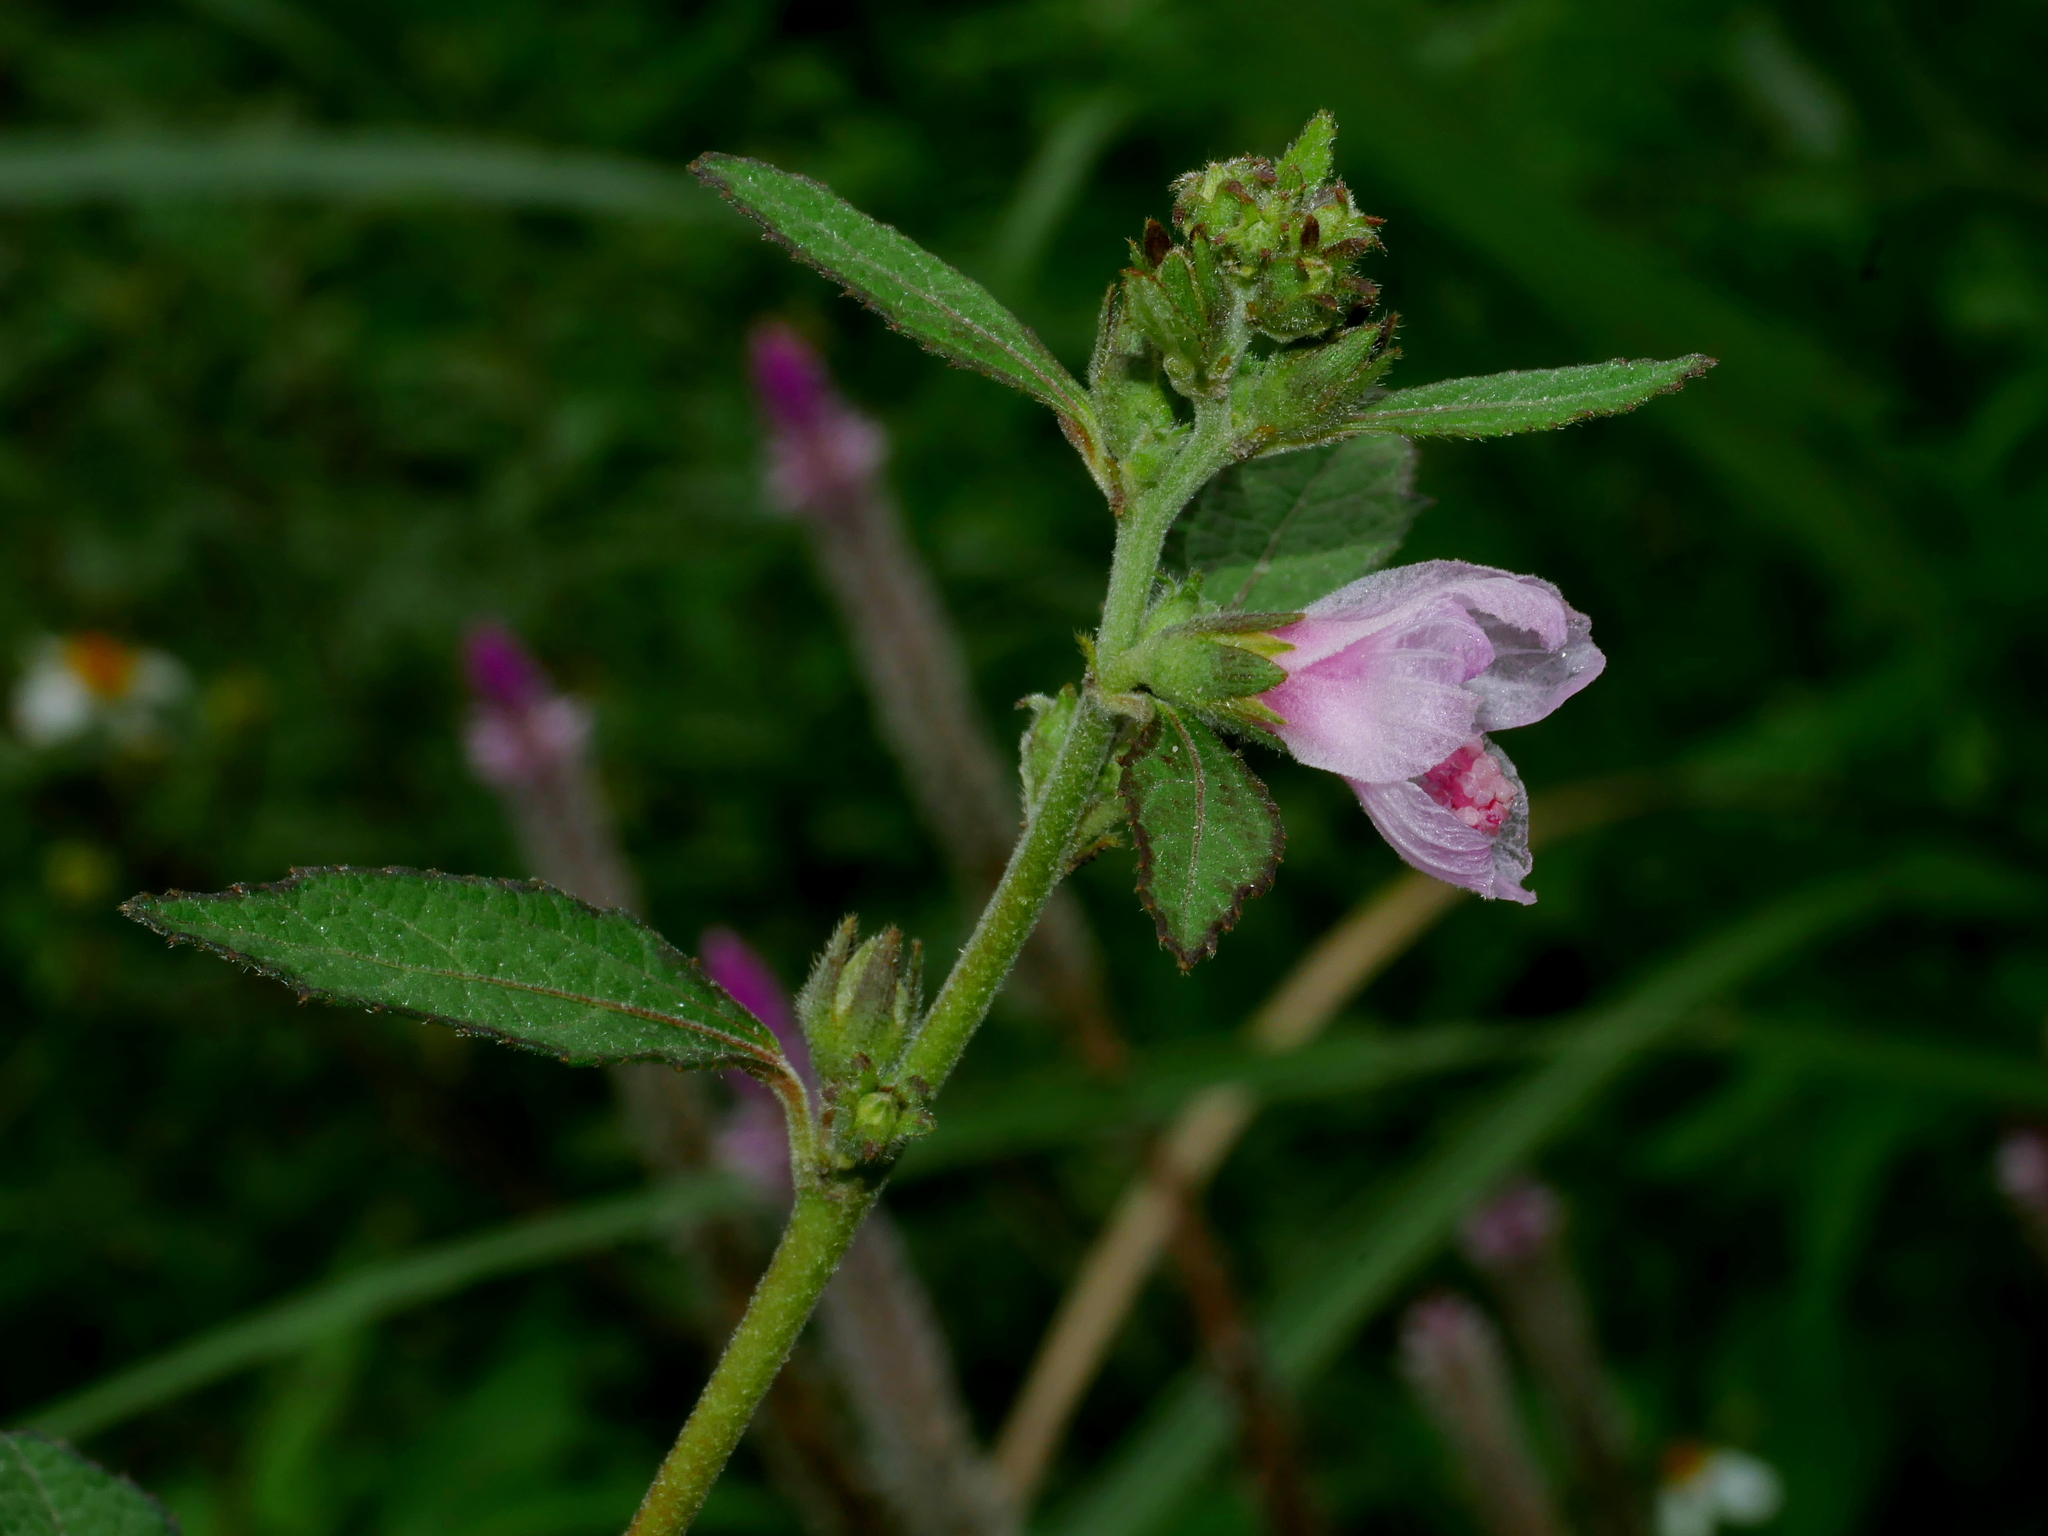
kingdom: Plantae
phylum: Tracheophyta
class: Magnoliopsida
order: Malvales
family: Malvaceae
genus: Urena
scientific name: Urena lobata
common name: Caesarweed
